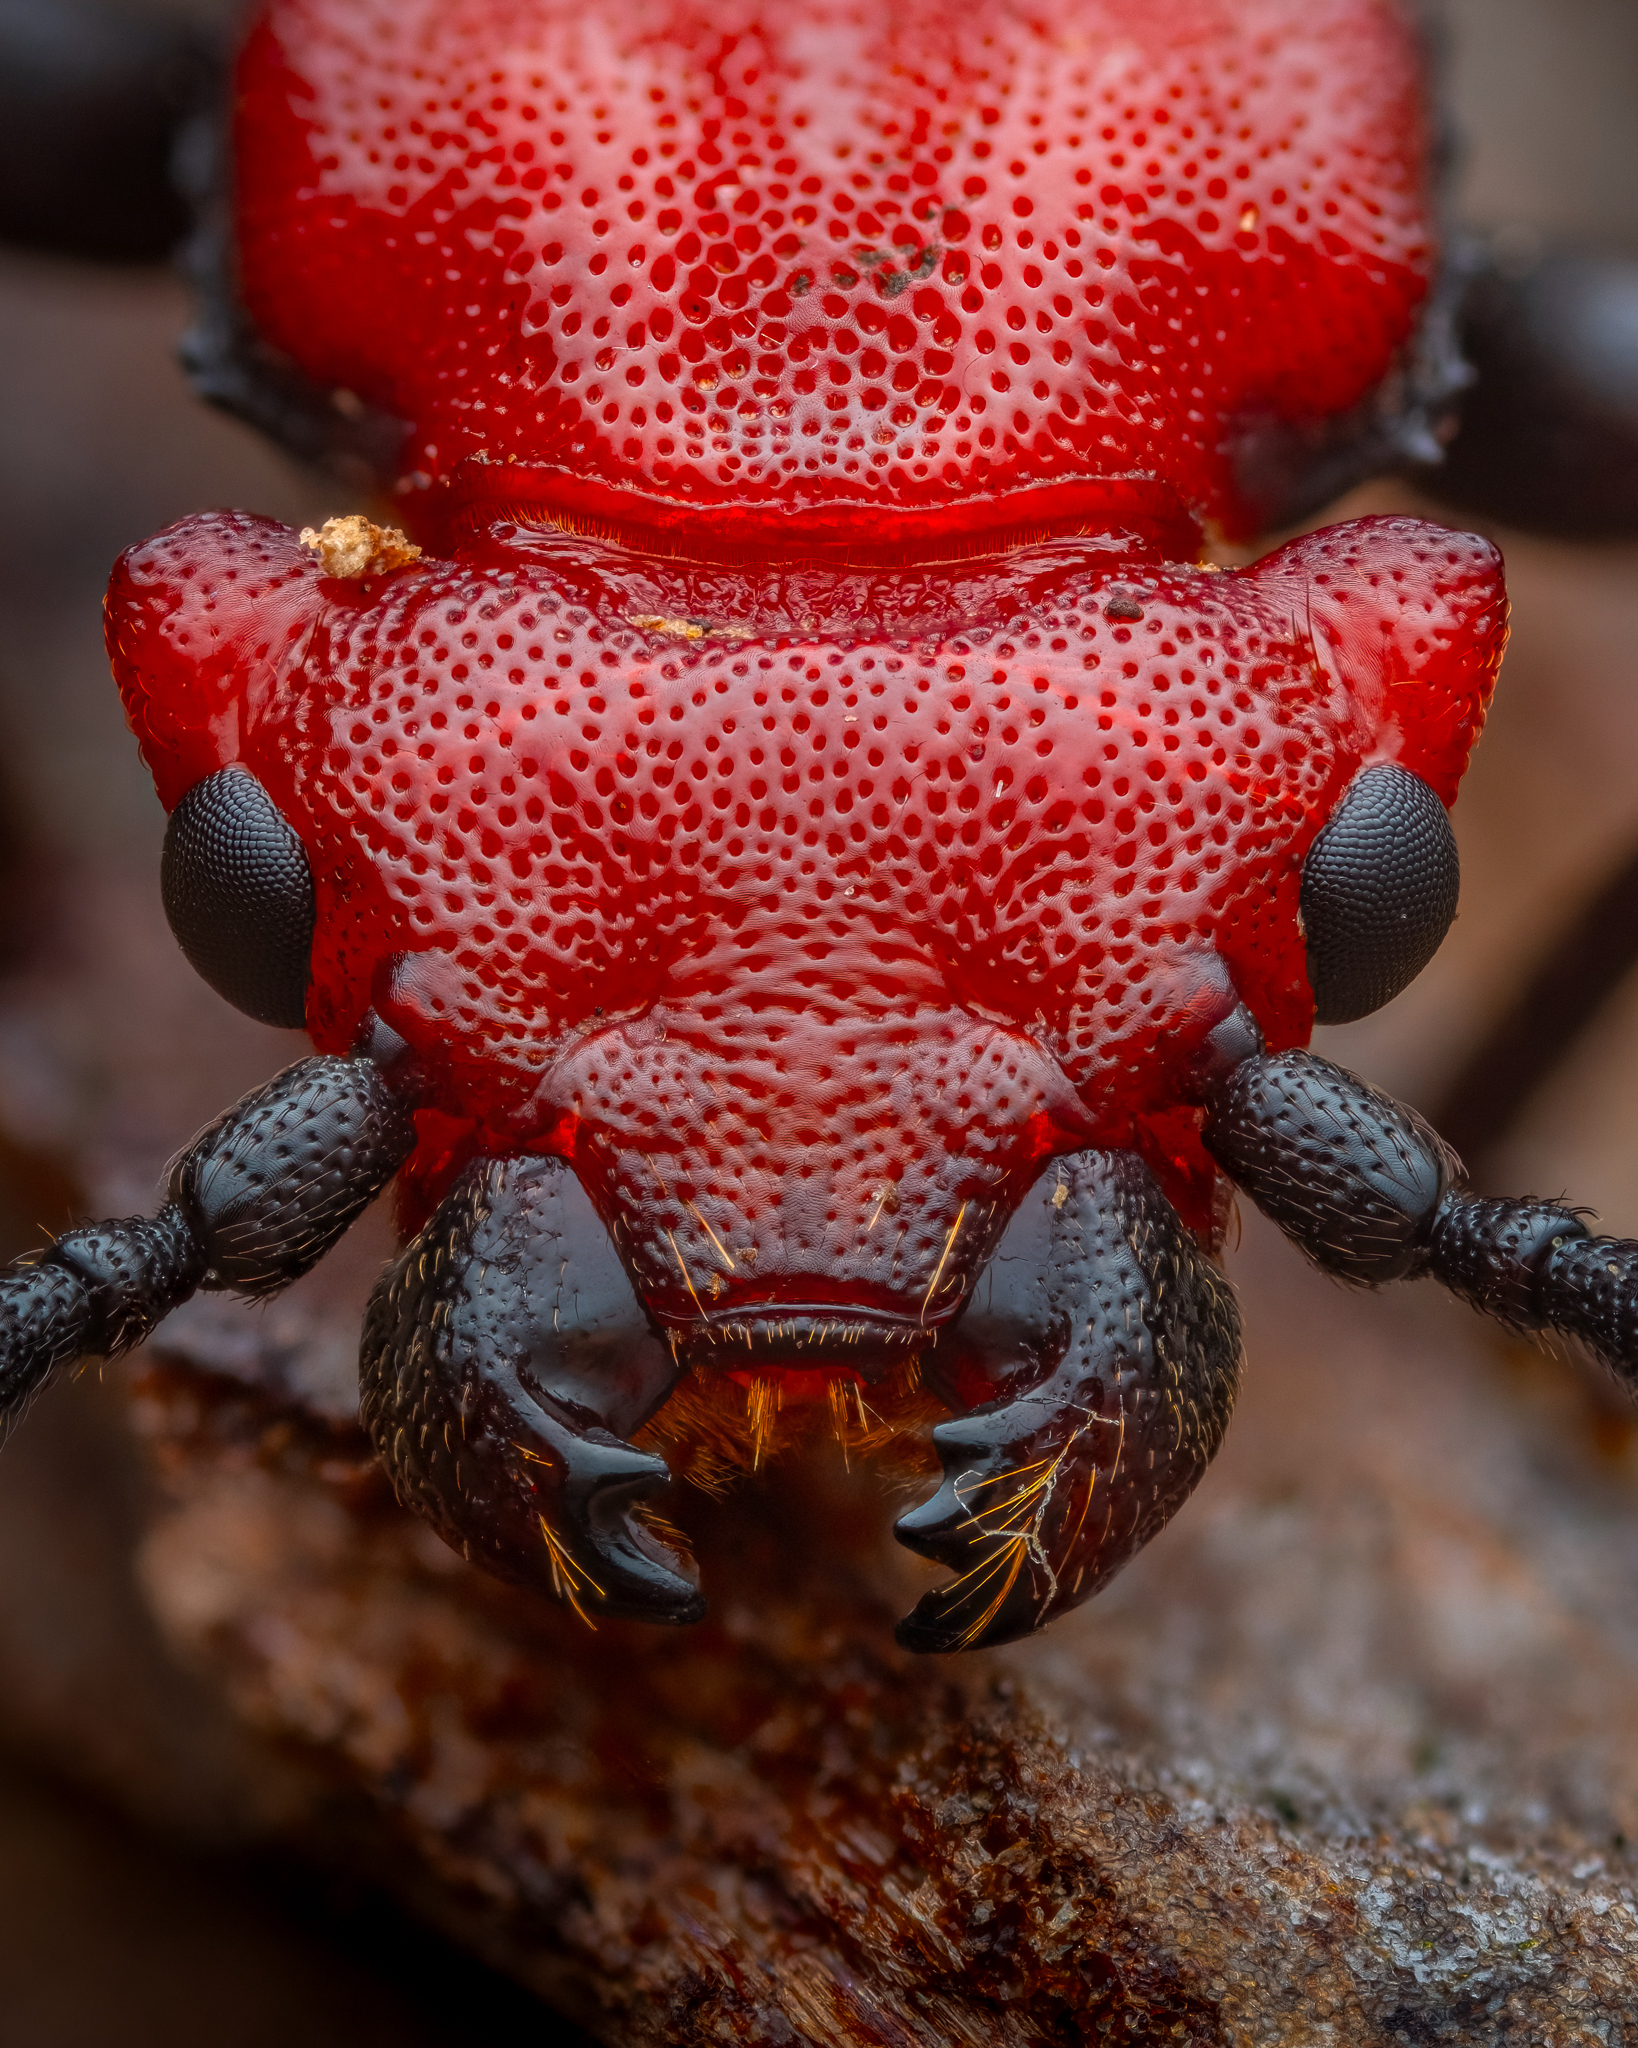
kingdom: Animalia
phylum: Arthropoda
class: Insecta
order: Coleoptera
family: Cucujidae
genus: Cucujus
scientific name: Cucujus cinnaberinus
